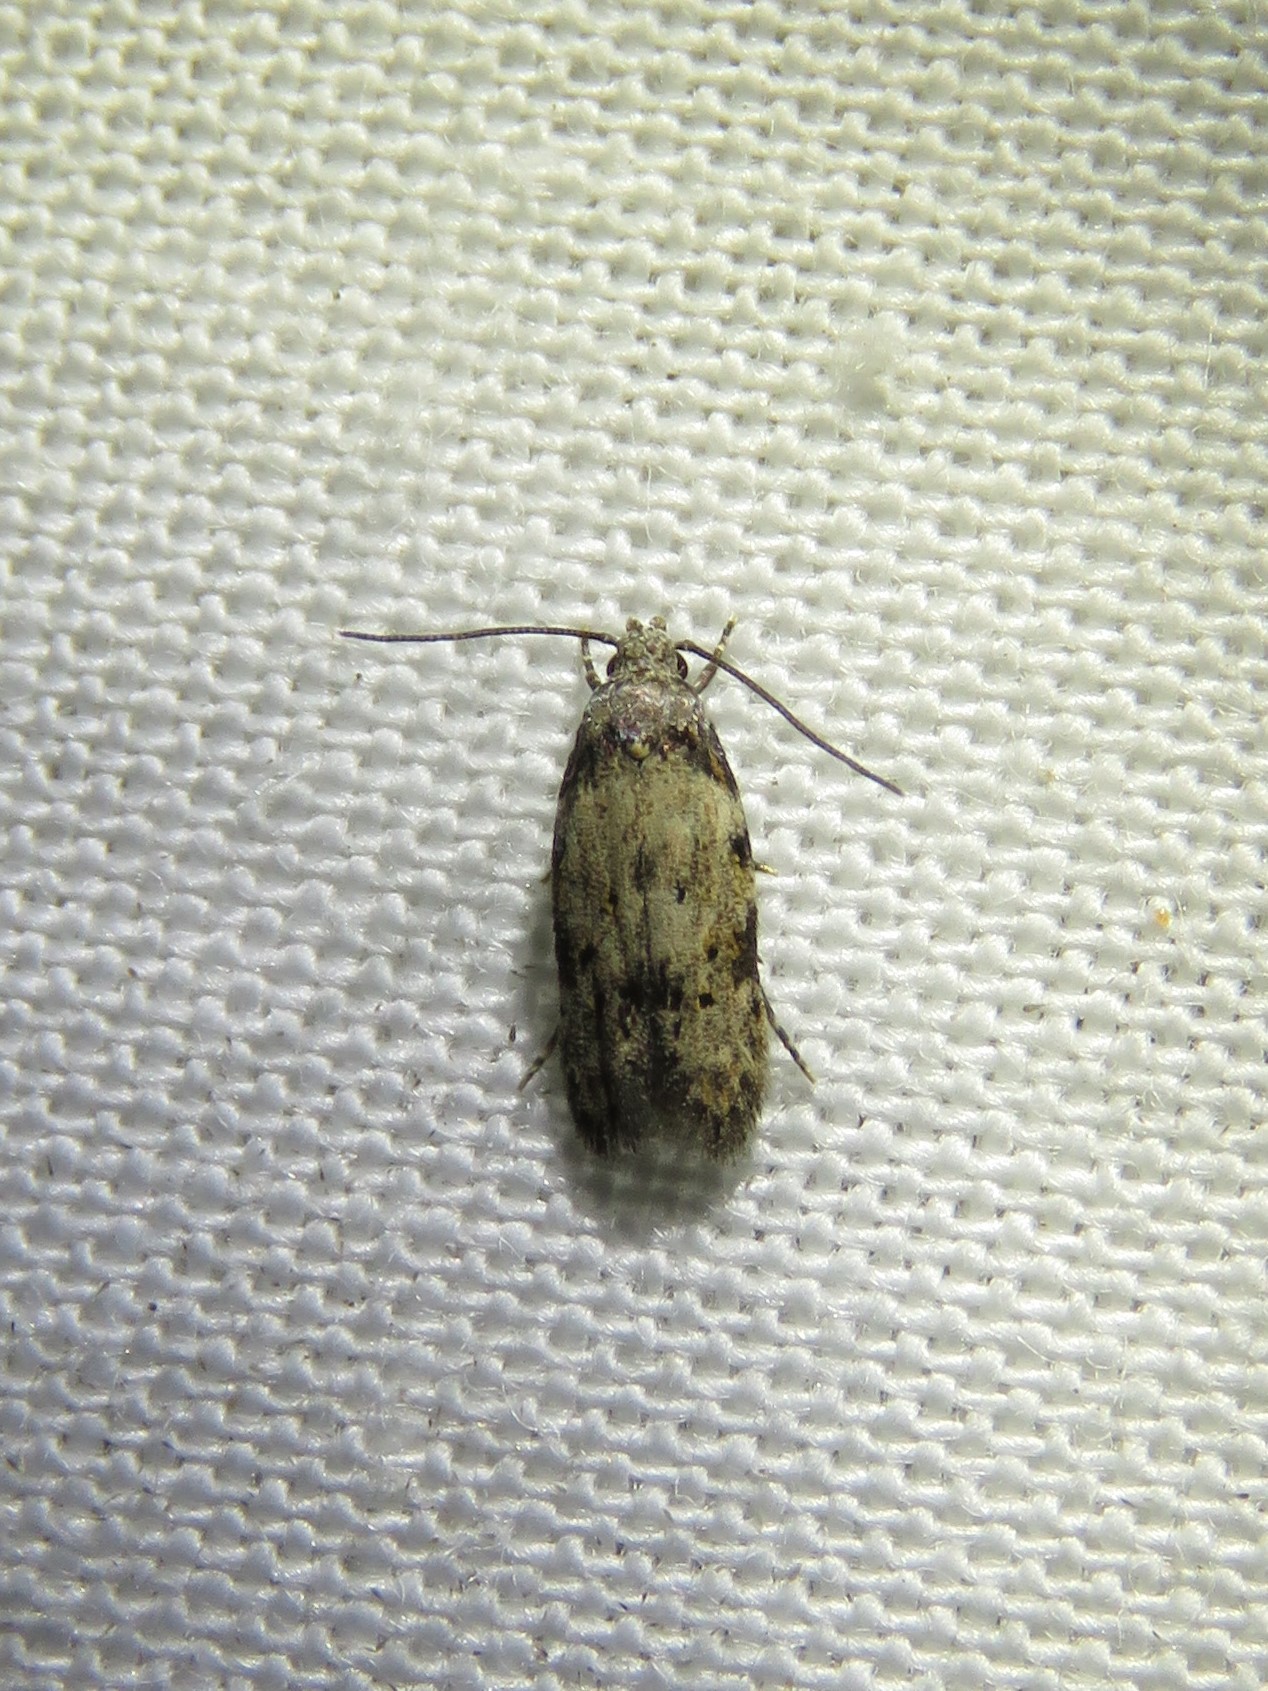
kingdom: Animalia
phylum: Arthropoda
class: Insecta
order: Lepidoptera
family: Autostichidae
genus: Taygete
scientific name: Taygete attributella
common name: Triangle-marked twirler moth
